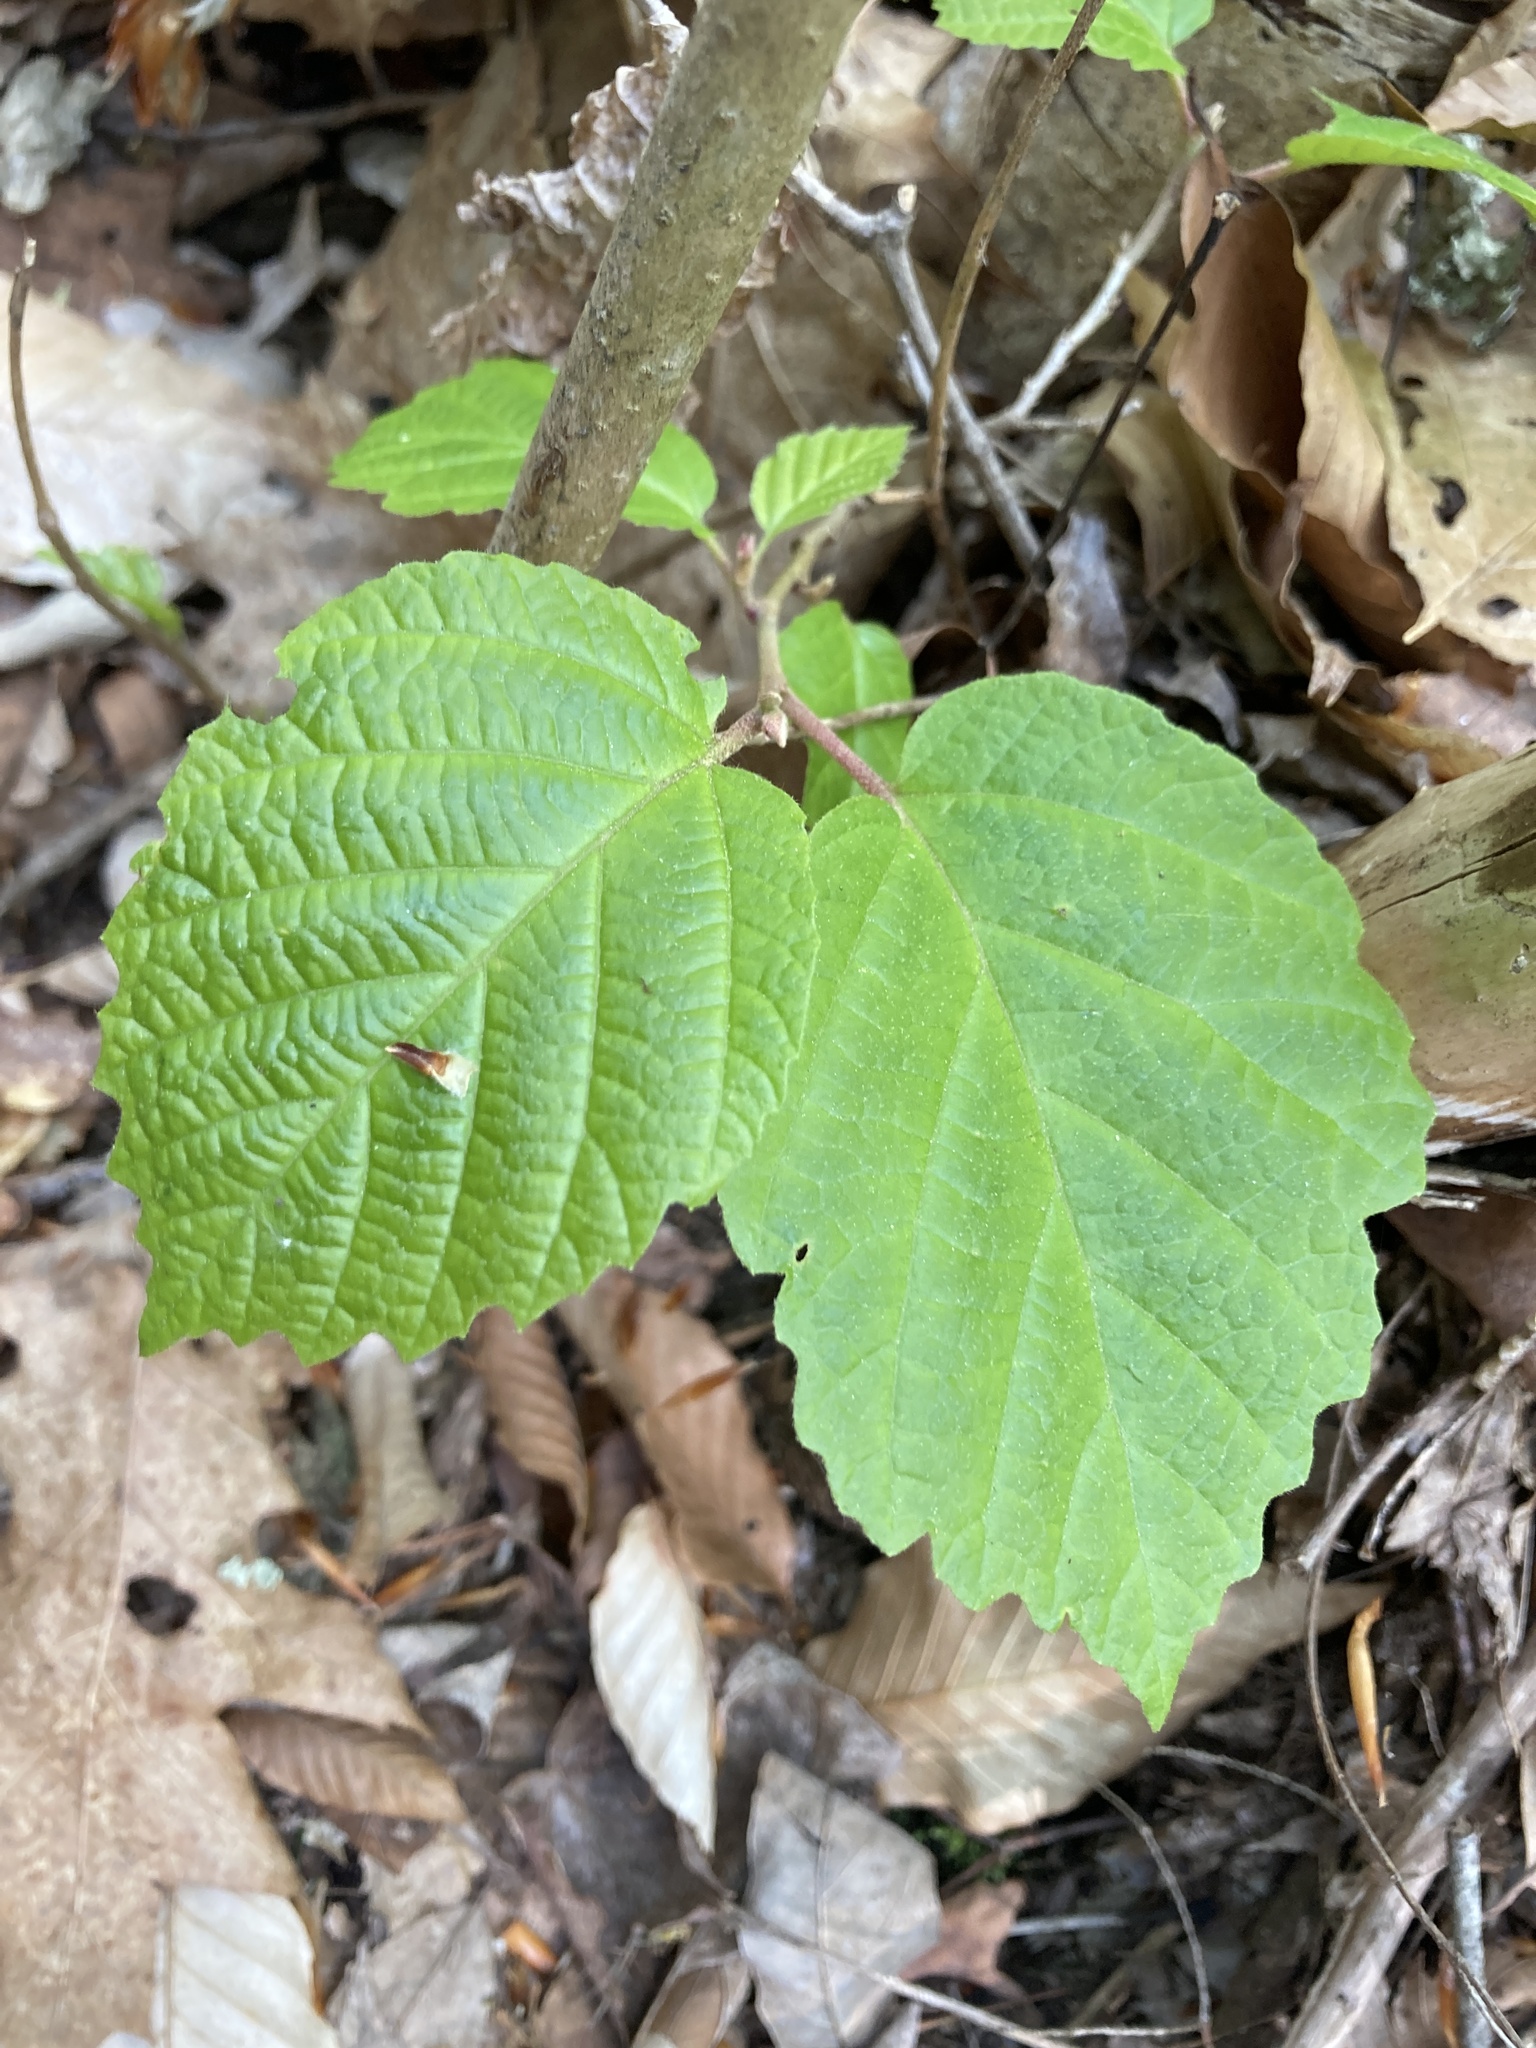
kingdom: Plantae
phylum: Tracheophyta
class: Magnoliopsida
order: Saxifragales
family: Hamamelidaceae
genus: Hamamelis
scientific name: Hamamelis virginiana
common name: Witch-hazel
